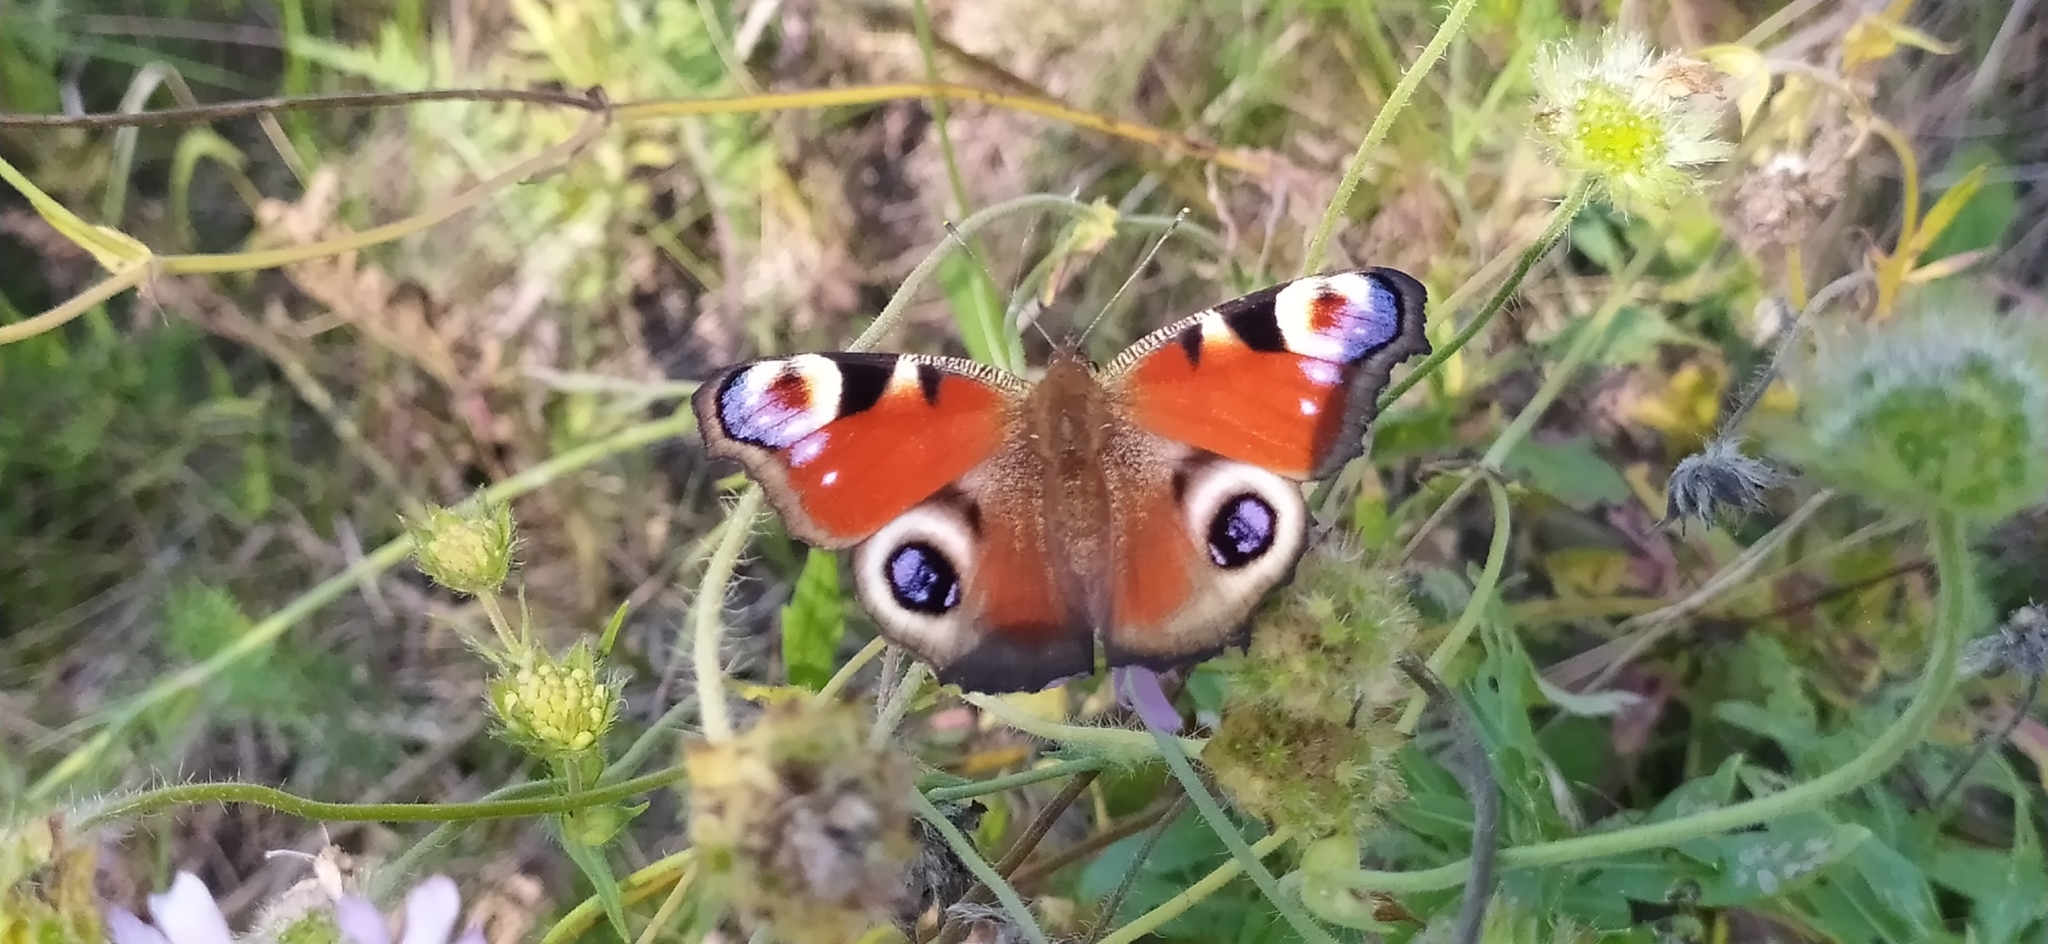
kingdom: Animalia
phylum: Arthropoda
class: Insecta
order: Lepidoptera
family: Nymphalidae
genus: Aglais
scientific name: Aglais io
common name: Peacock
